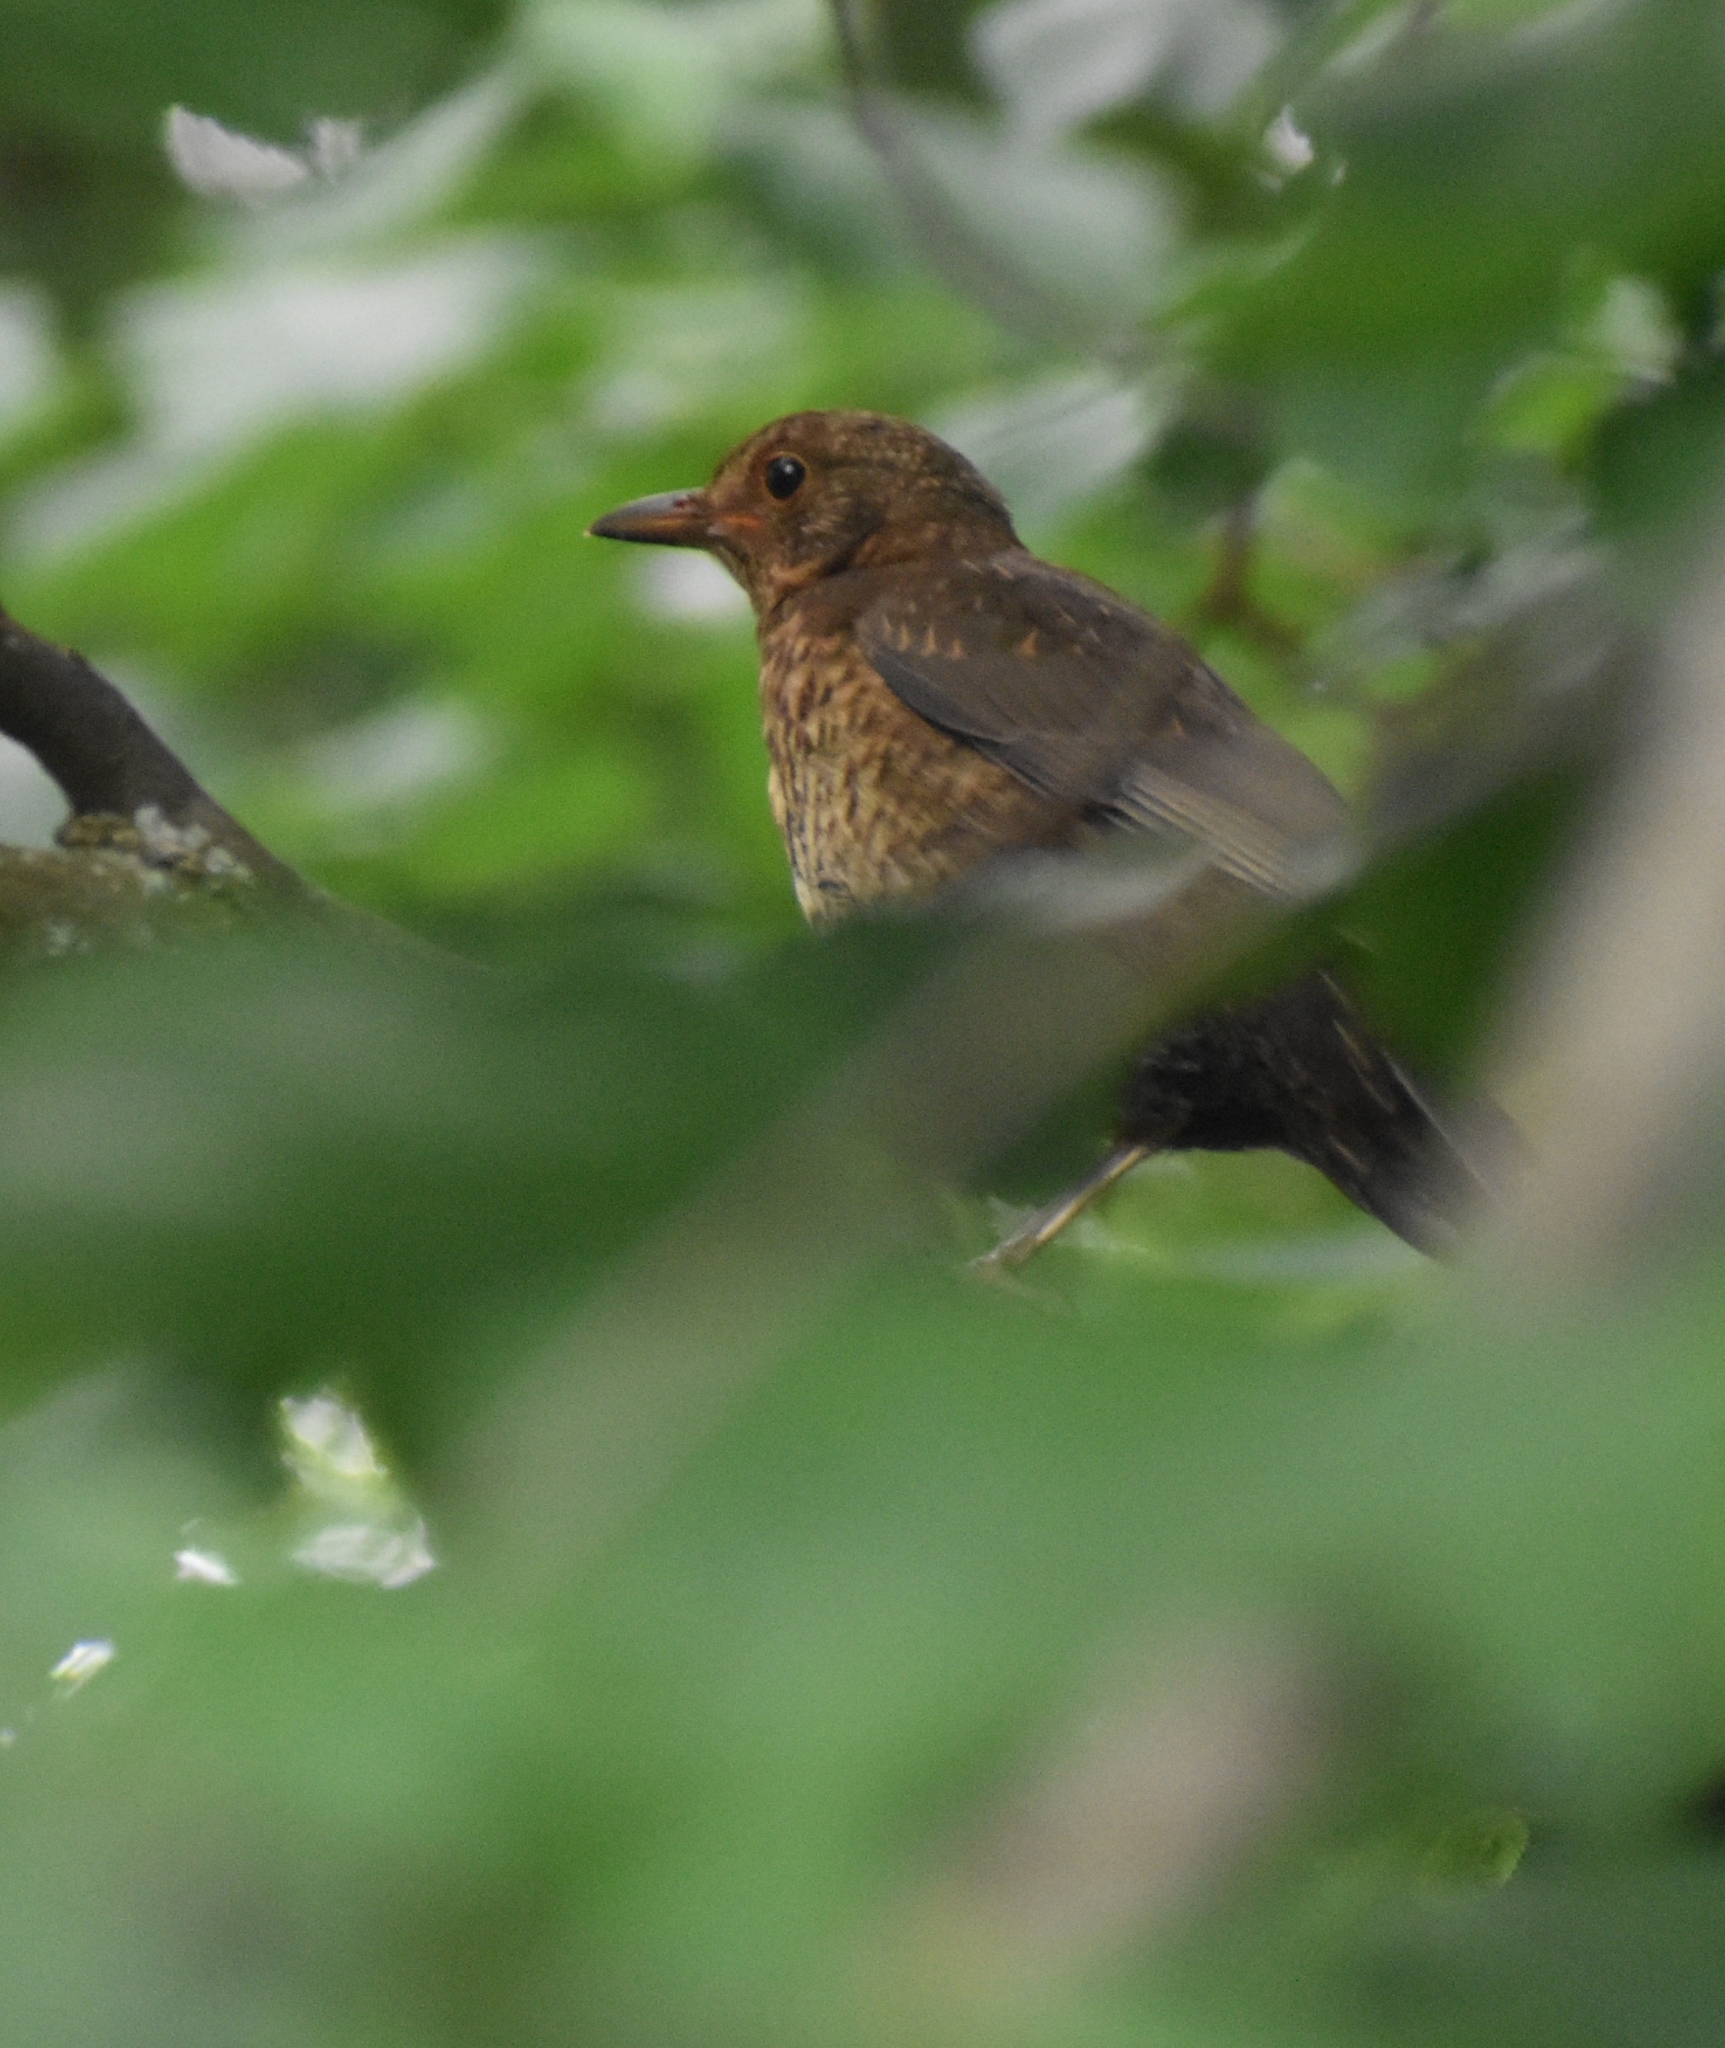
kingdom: Animalia
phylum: Chordata
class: Aves
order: Passeriformes
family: Turdidae
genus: Turdus
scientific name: Turdus merula
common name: Common blackbird
